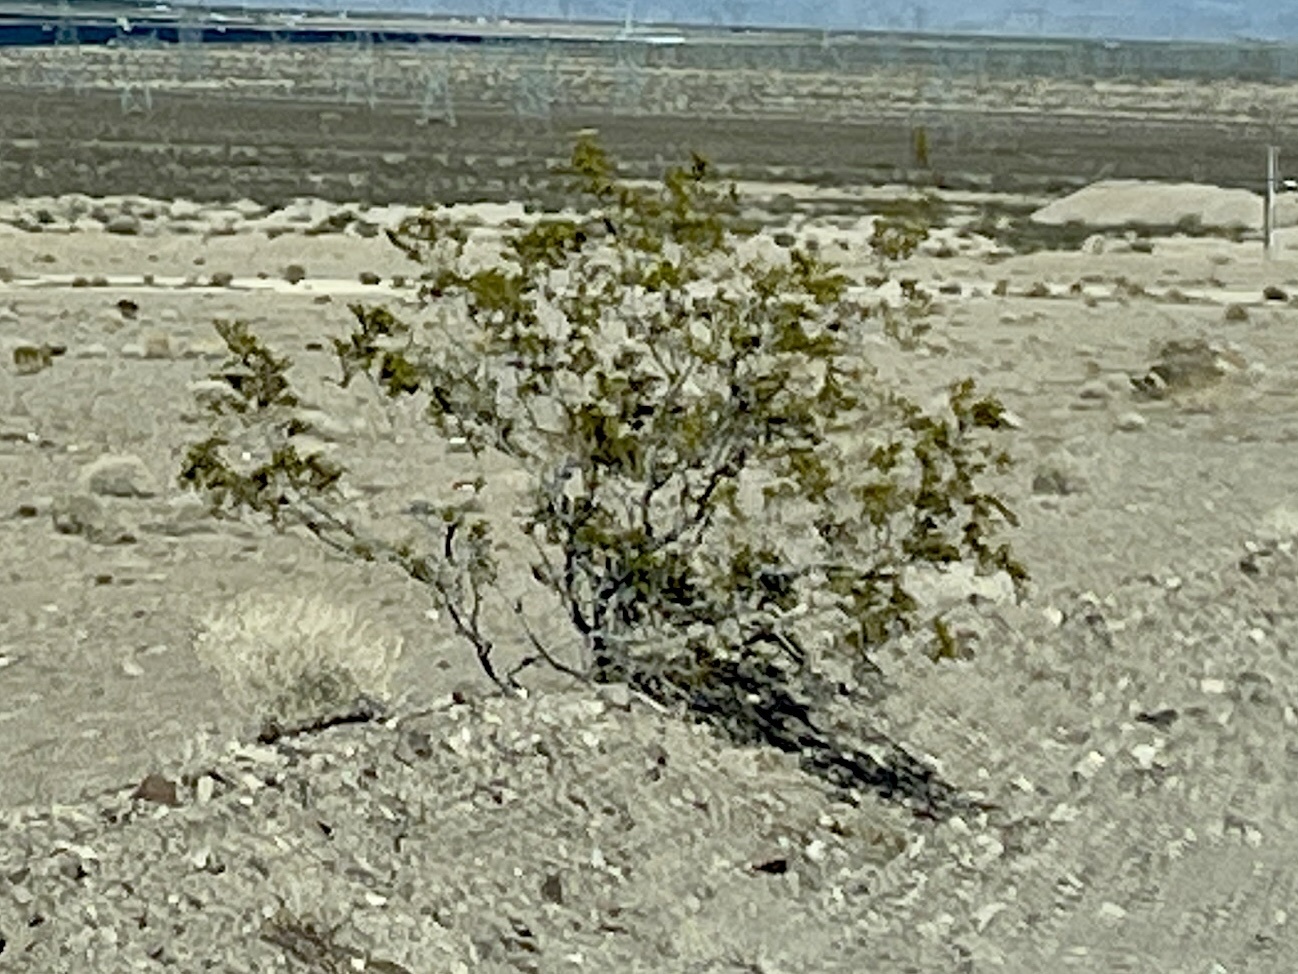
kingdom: Plantae
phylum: Tracheophyta
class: Magnoliopsida
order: Zygophyllales
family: Zygophyllaceae
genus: Larrea
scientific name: Larrea tridentata
